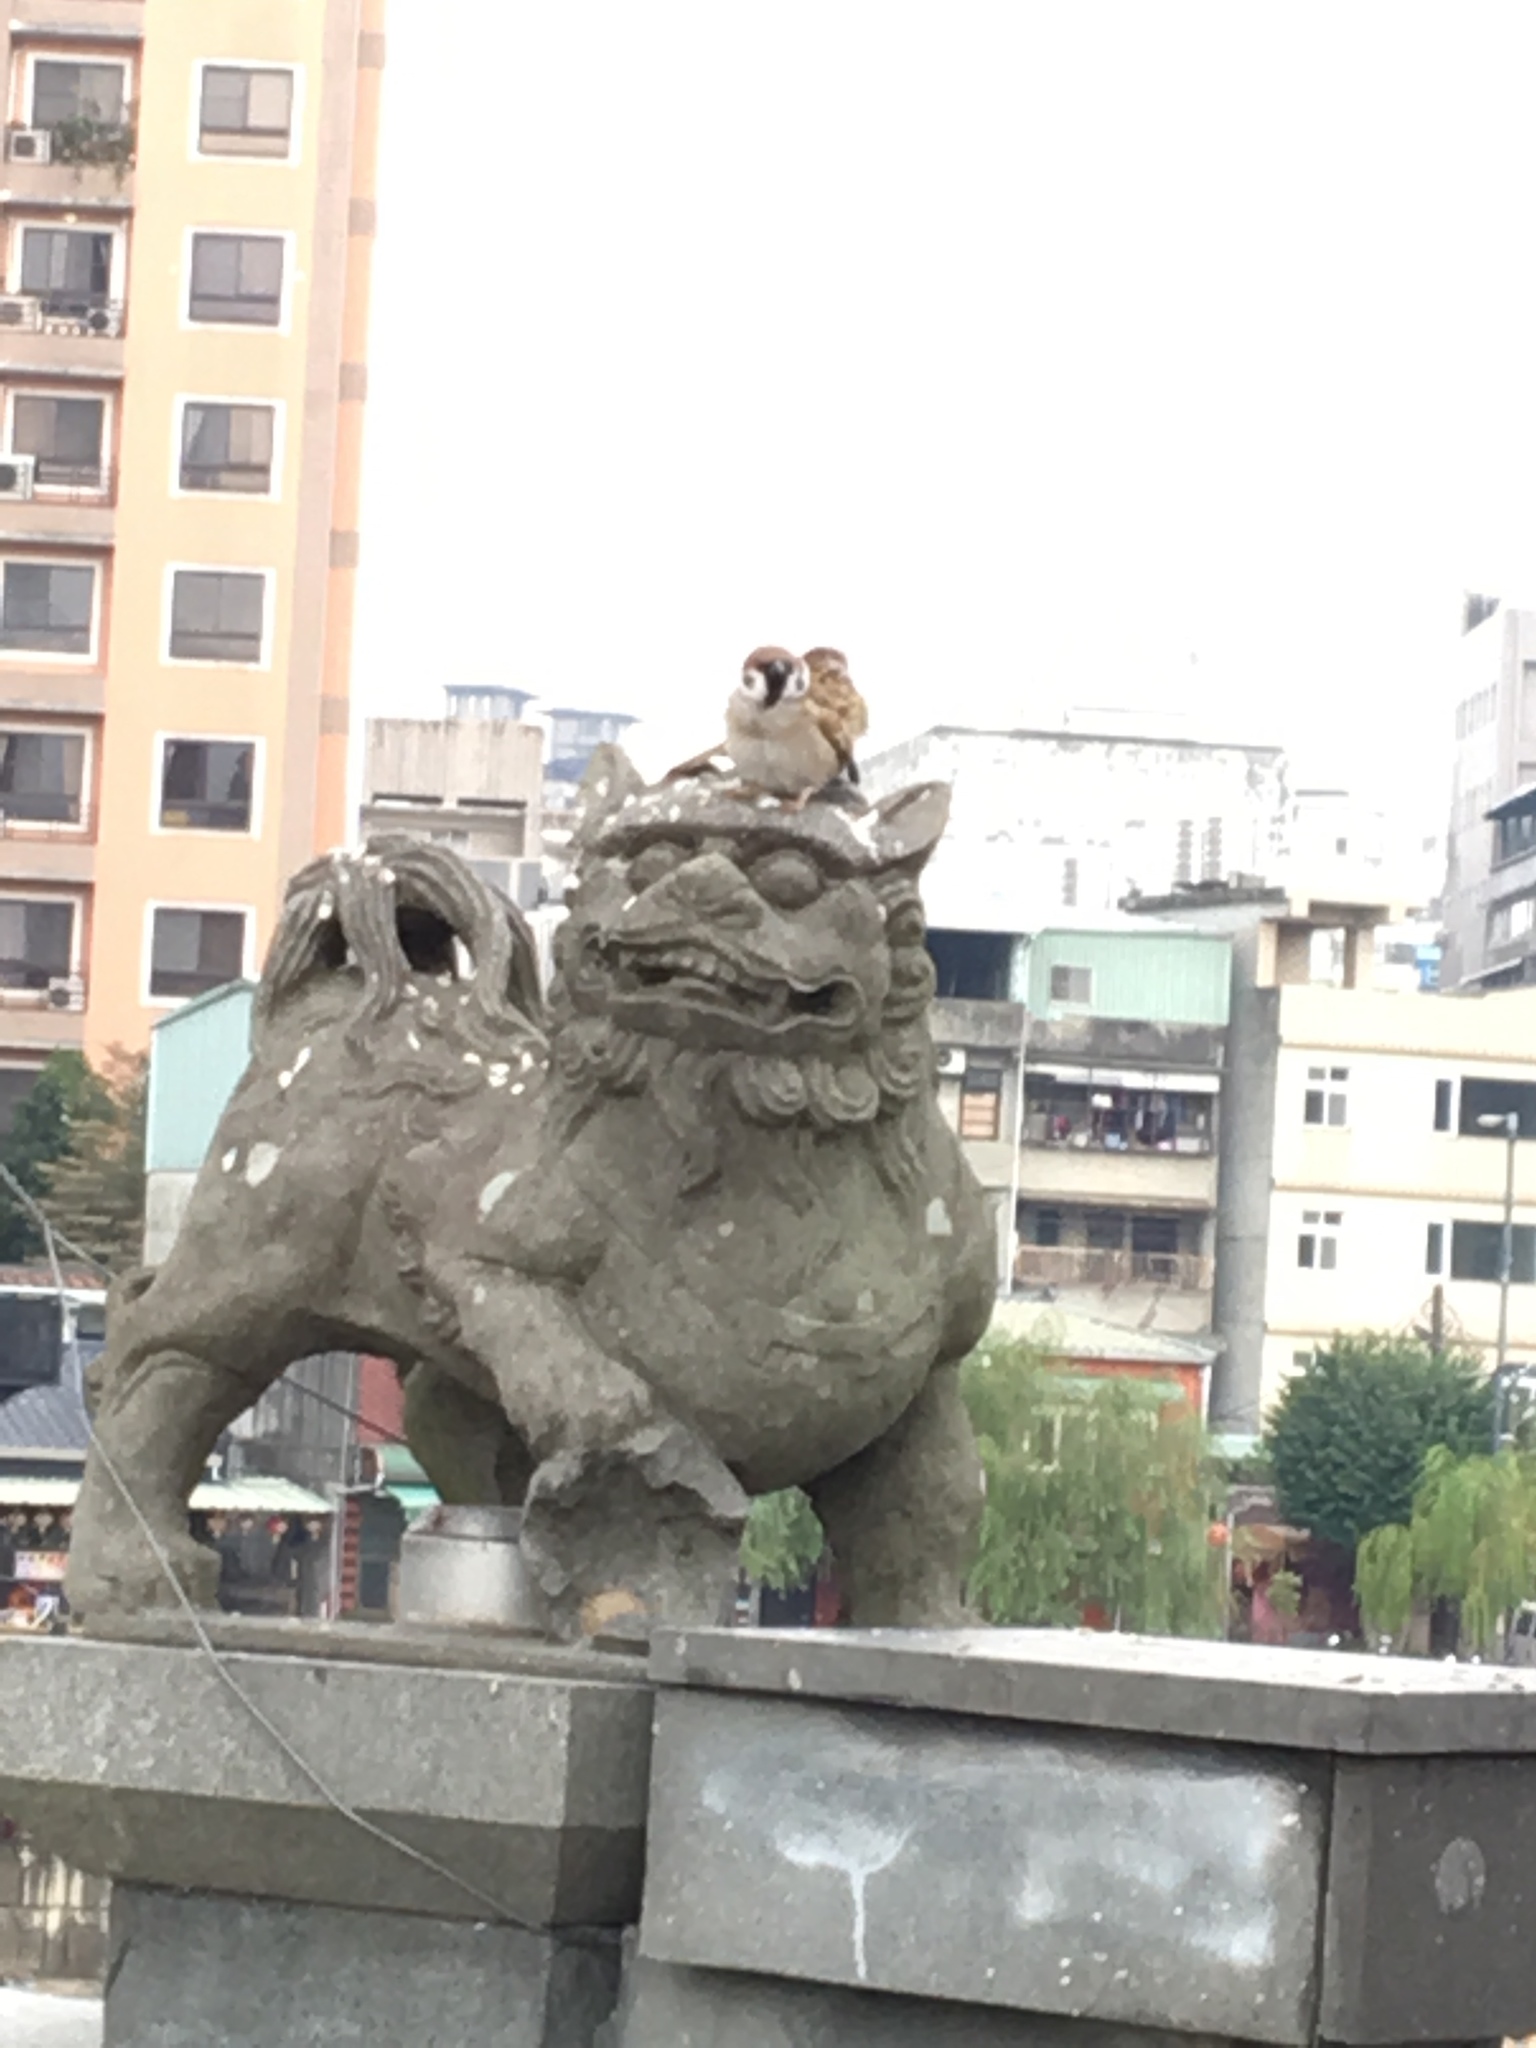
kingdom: Animalia
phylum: Chordata
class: Aves
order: Passeriformes
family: Passeridae
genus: Passer
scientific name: Passer montanus
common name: Eurasian tree sparrow
